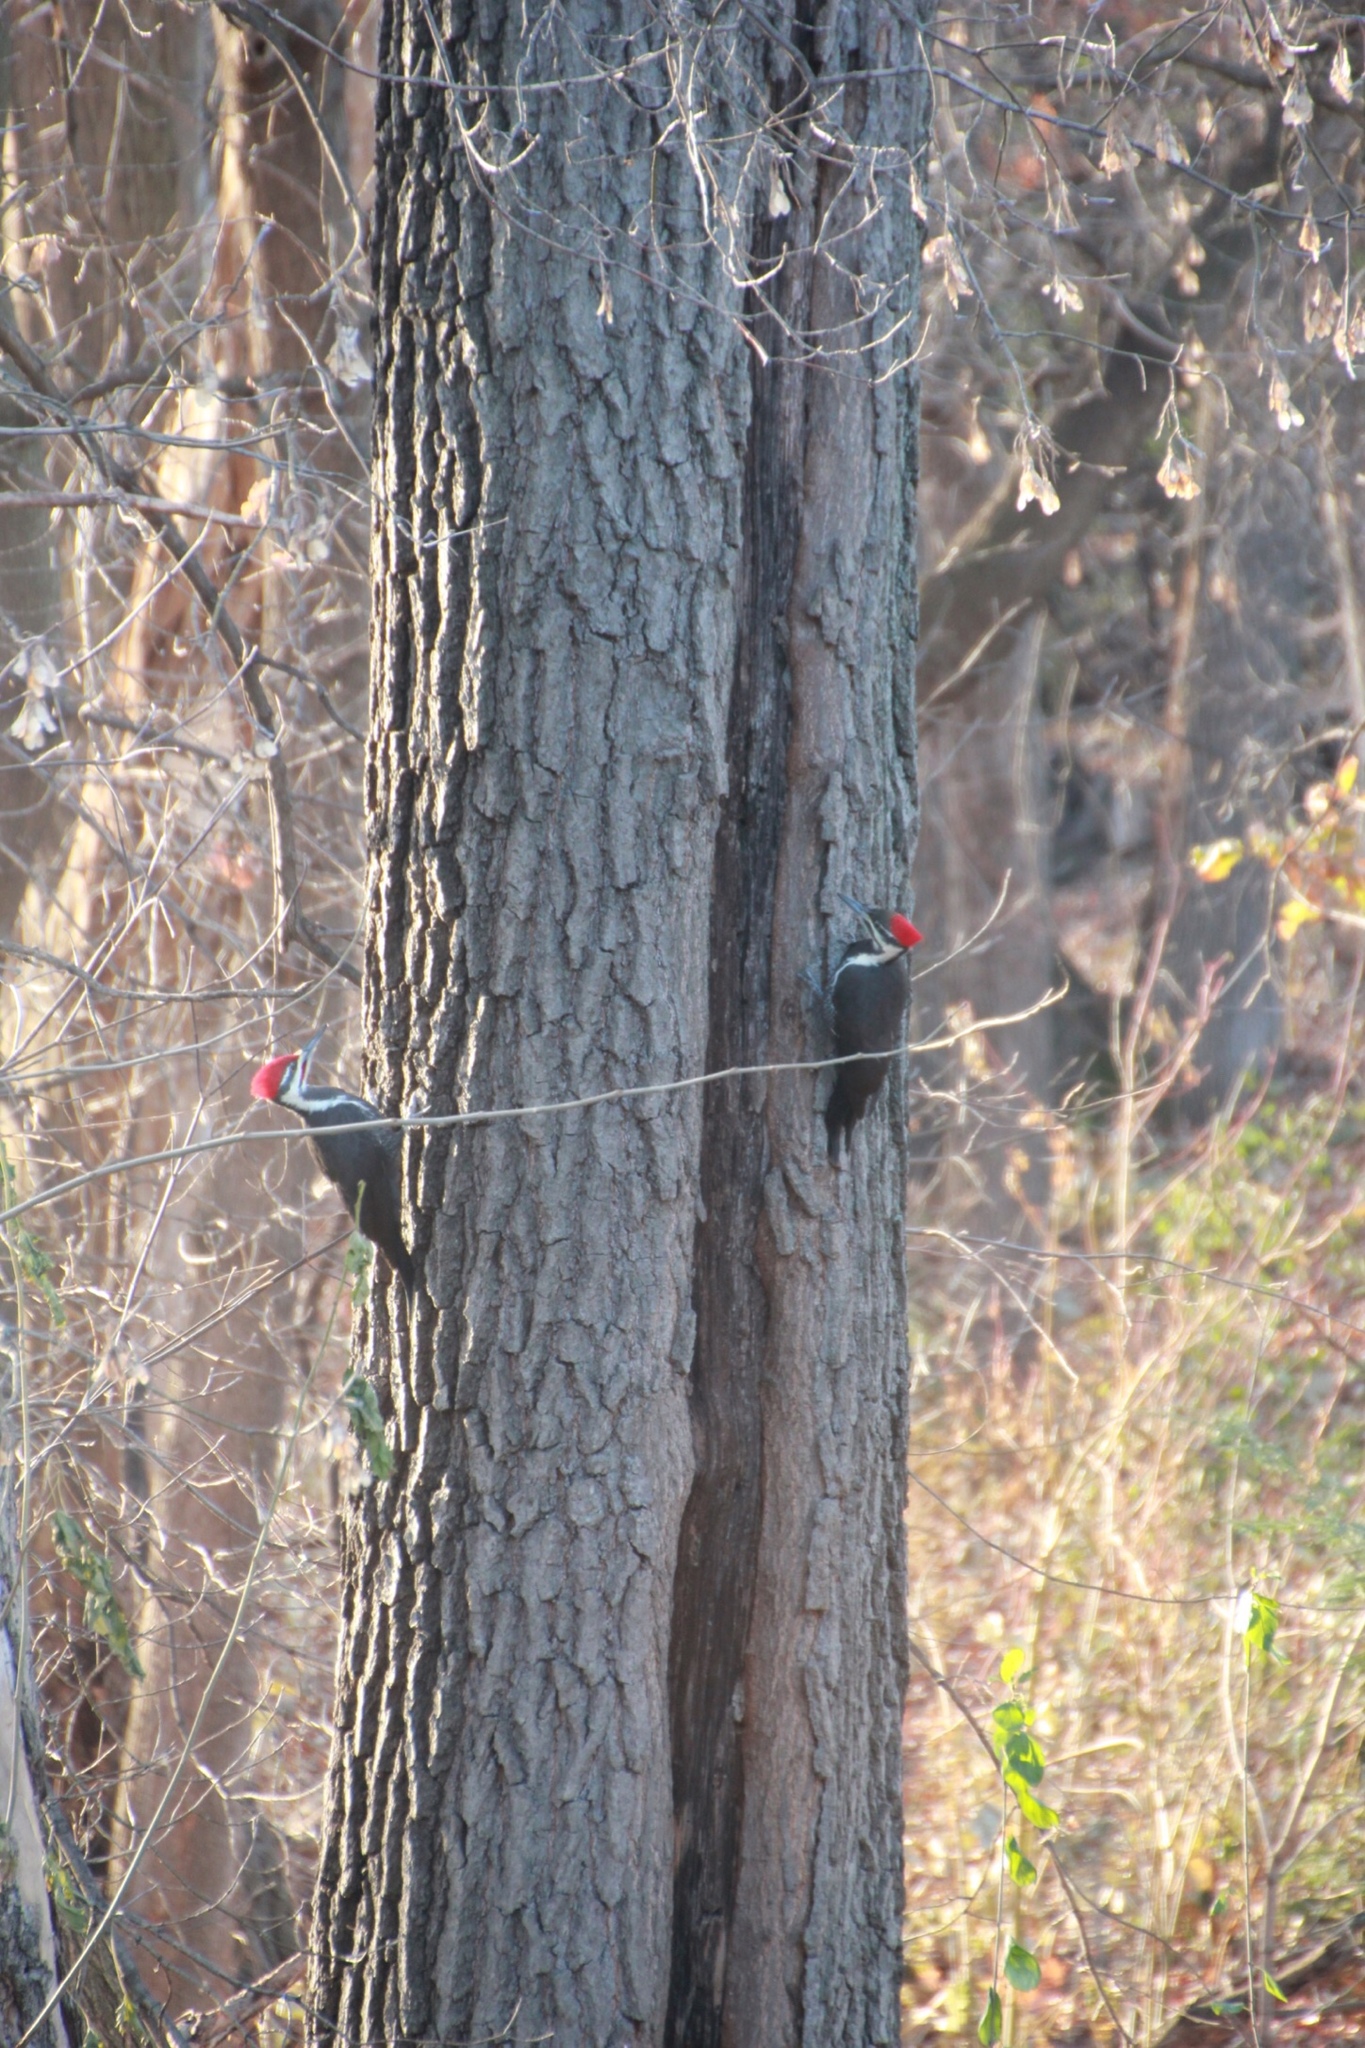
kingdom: Animalia
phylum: Chordata
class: Aves
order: Piciformes
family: Picidae
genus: Dryocopus
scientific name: Dryocopus pileatus
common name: Pileated woodpecker
